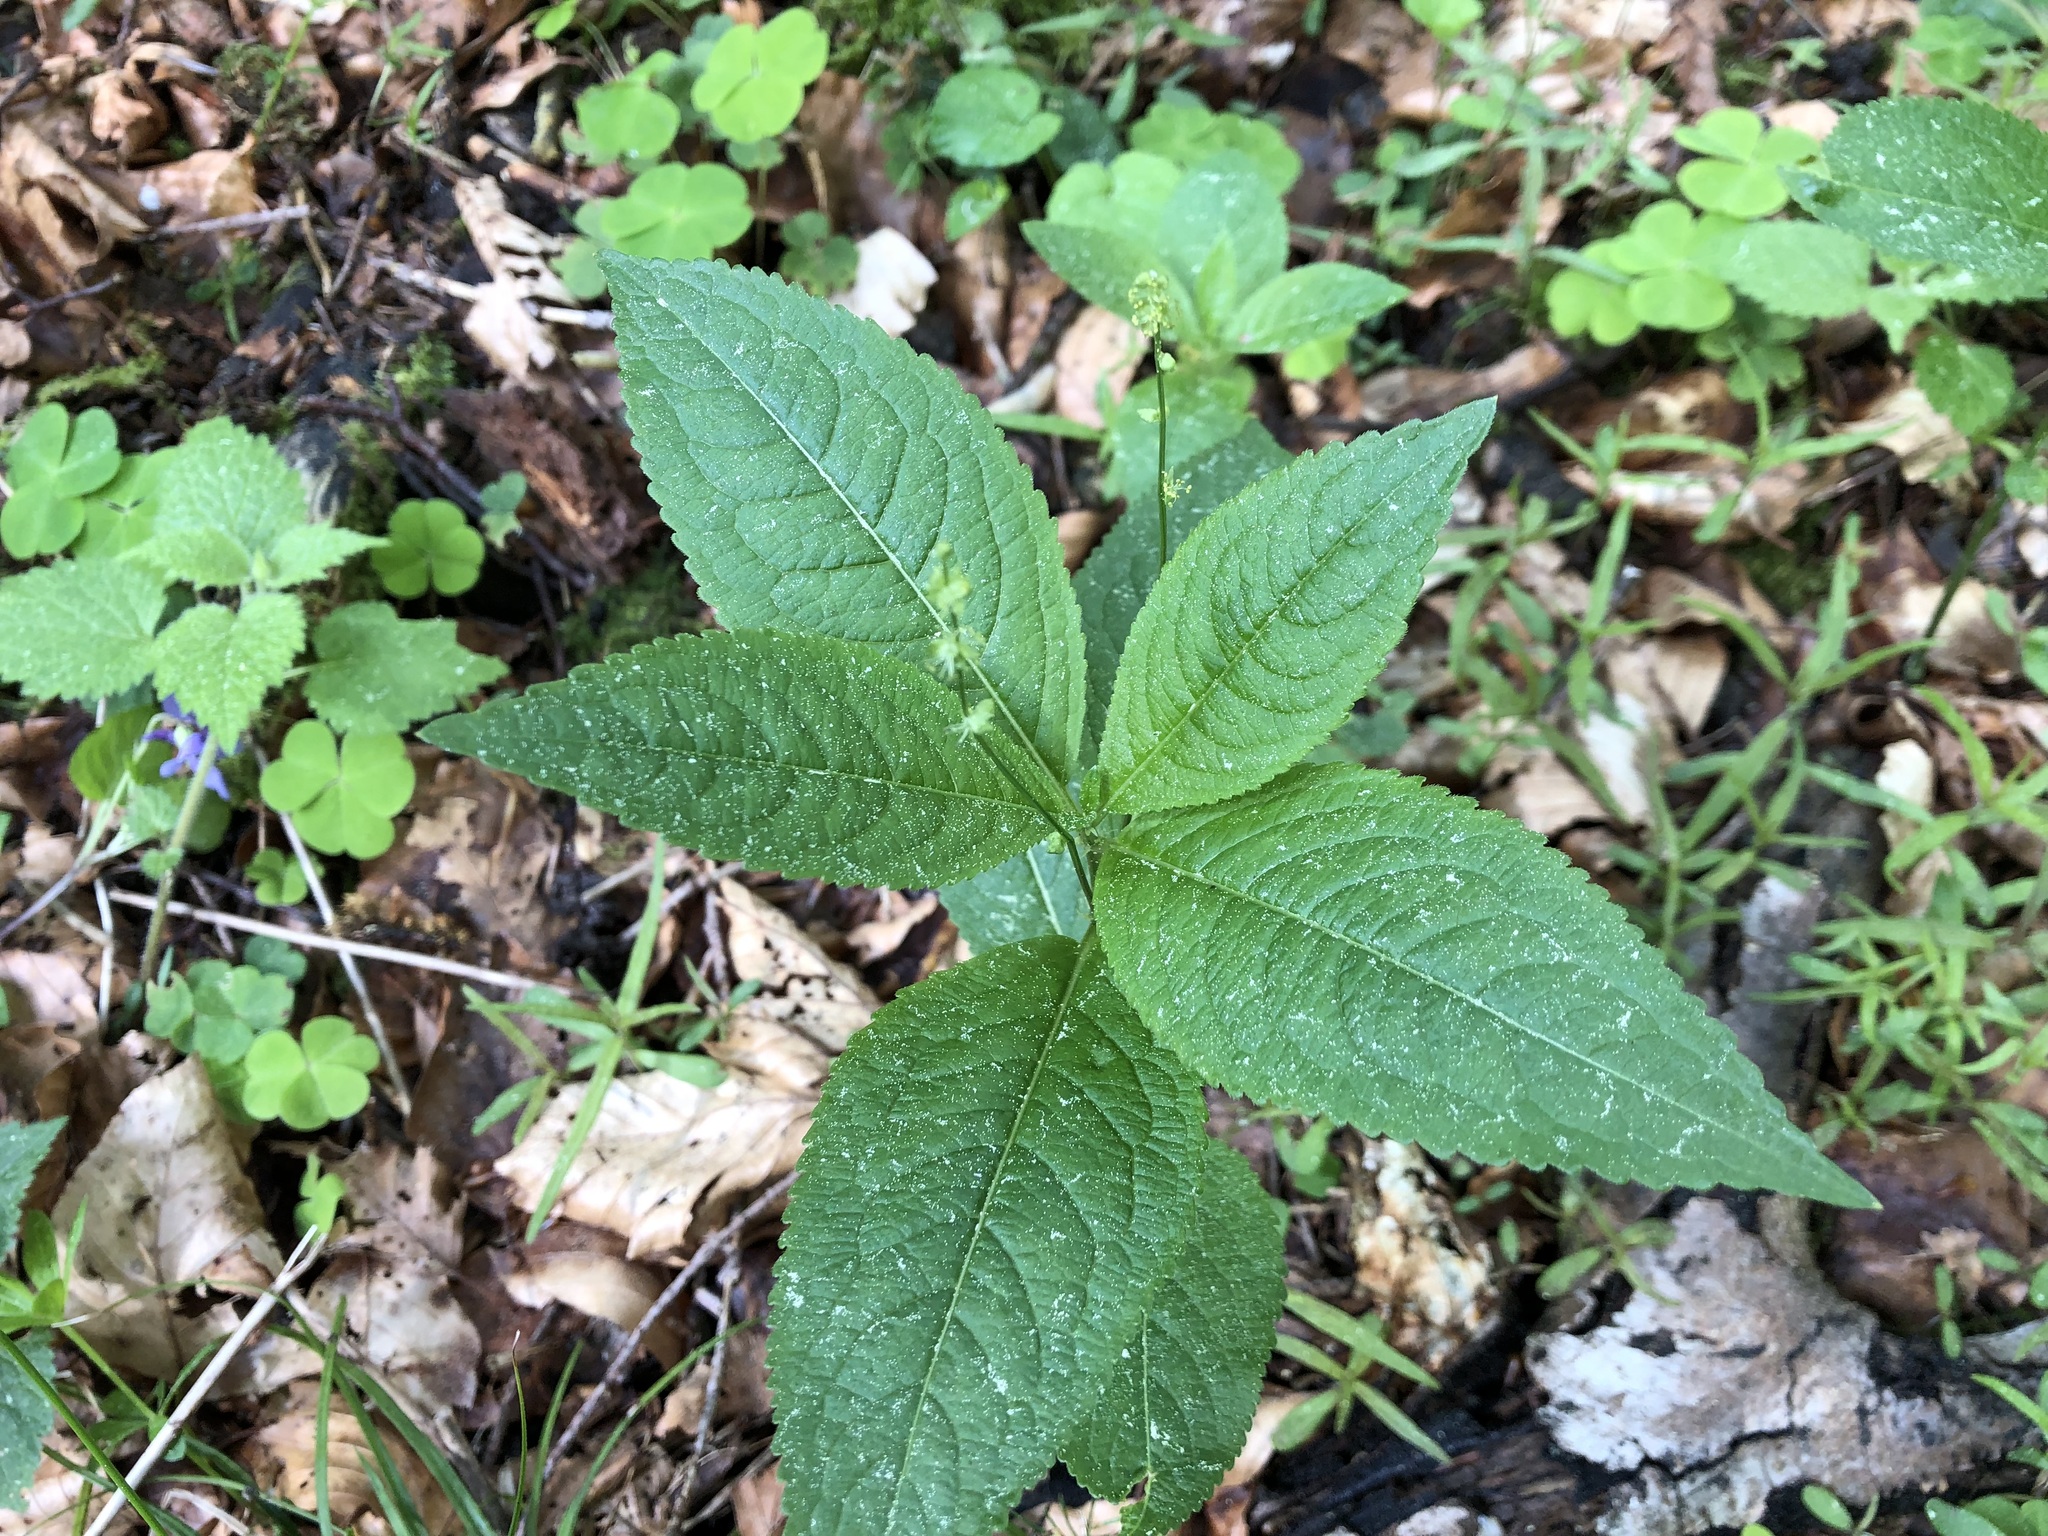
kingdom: Plantae
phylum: Tracheophyta
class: Magnoliopsida
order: Malpighiales
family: Euphorbiaceae
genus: Mercurialis
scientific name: Mercurialis perennis
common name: Dog mercury
